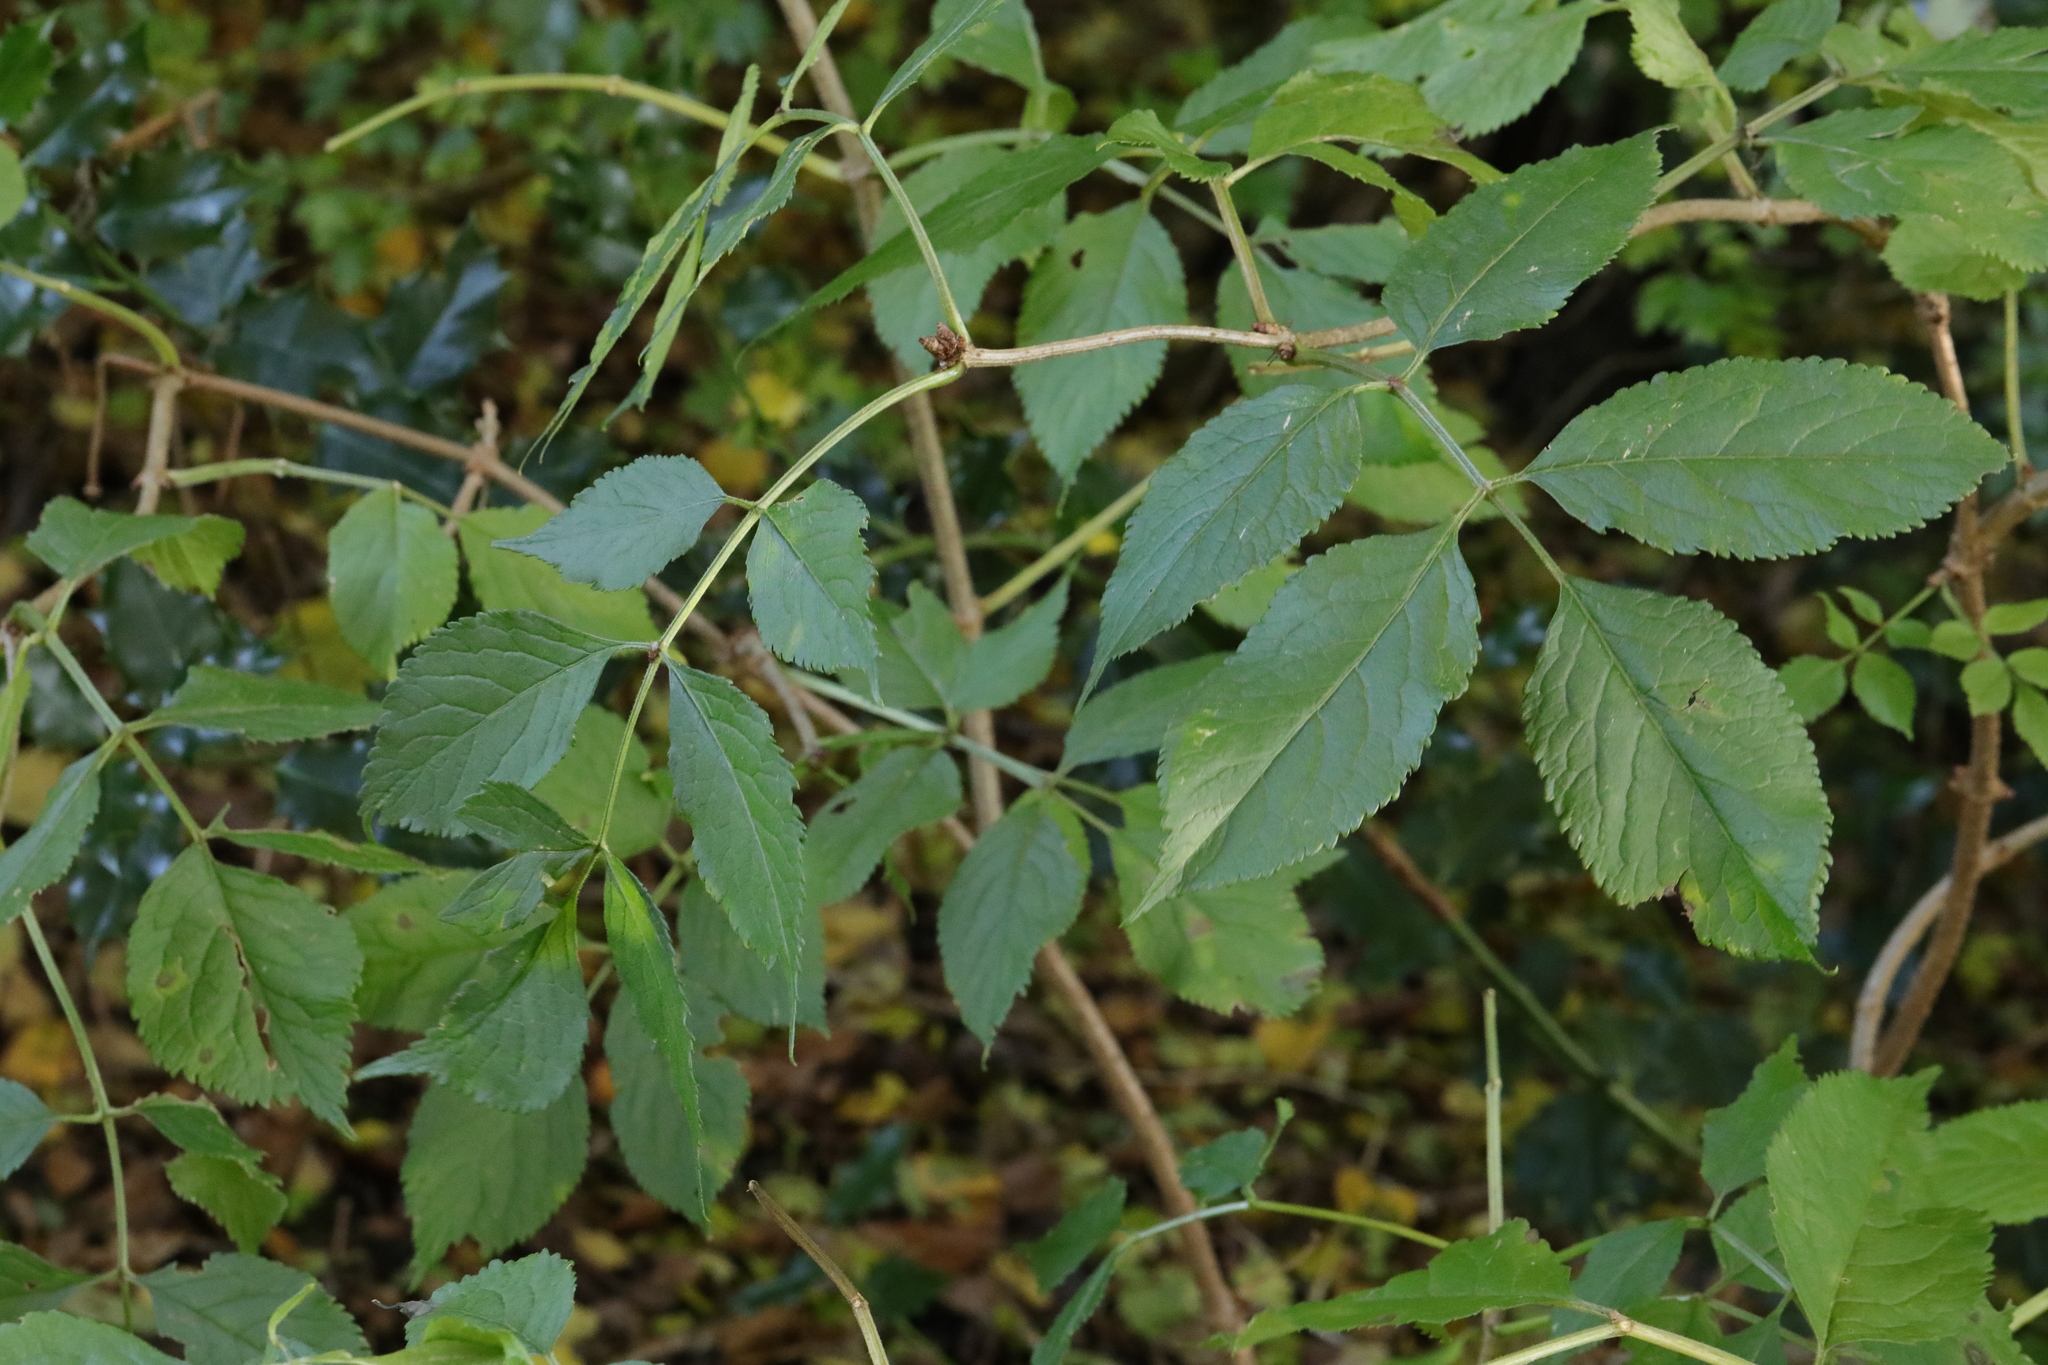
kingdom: Plantae
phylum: Tracheophyta
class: Magnoliopsida
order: Dipsacales
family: Viburnaceae
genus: Sambucus
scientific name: Sambucus nigra
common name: Elder
